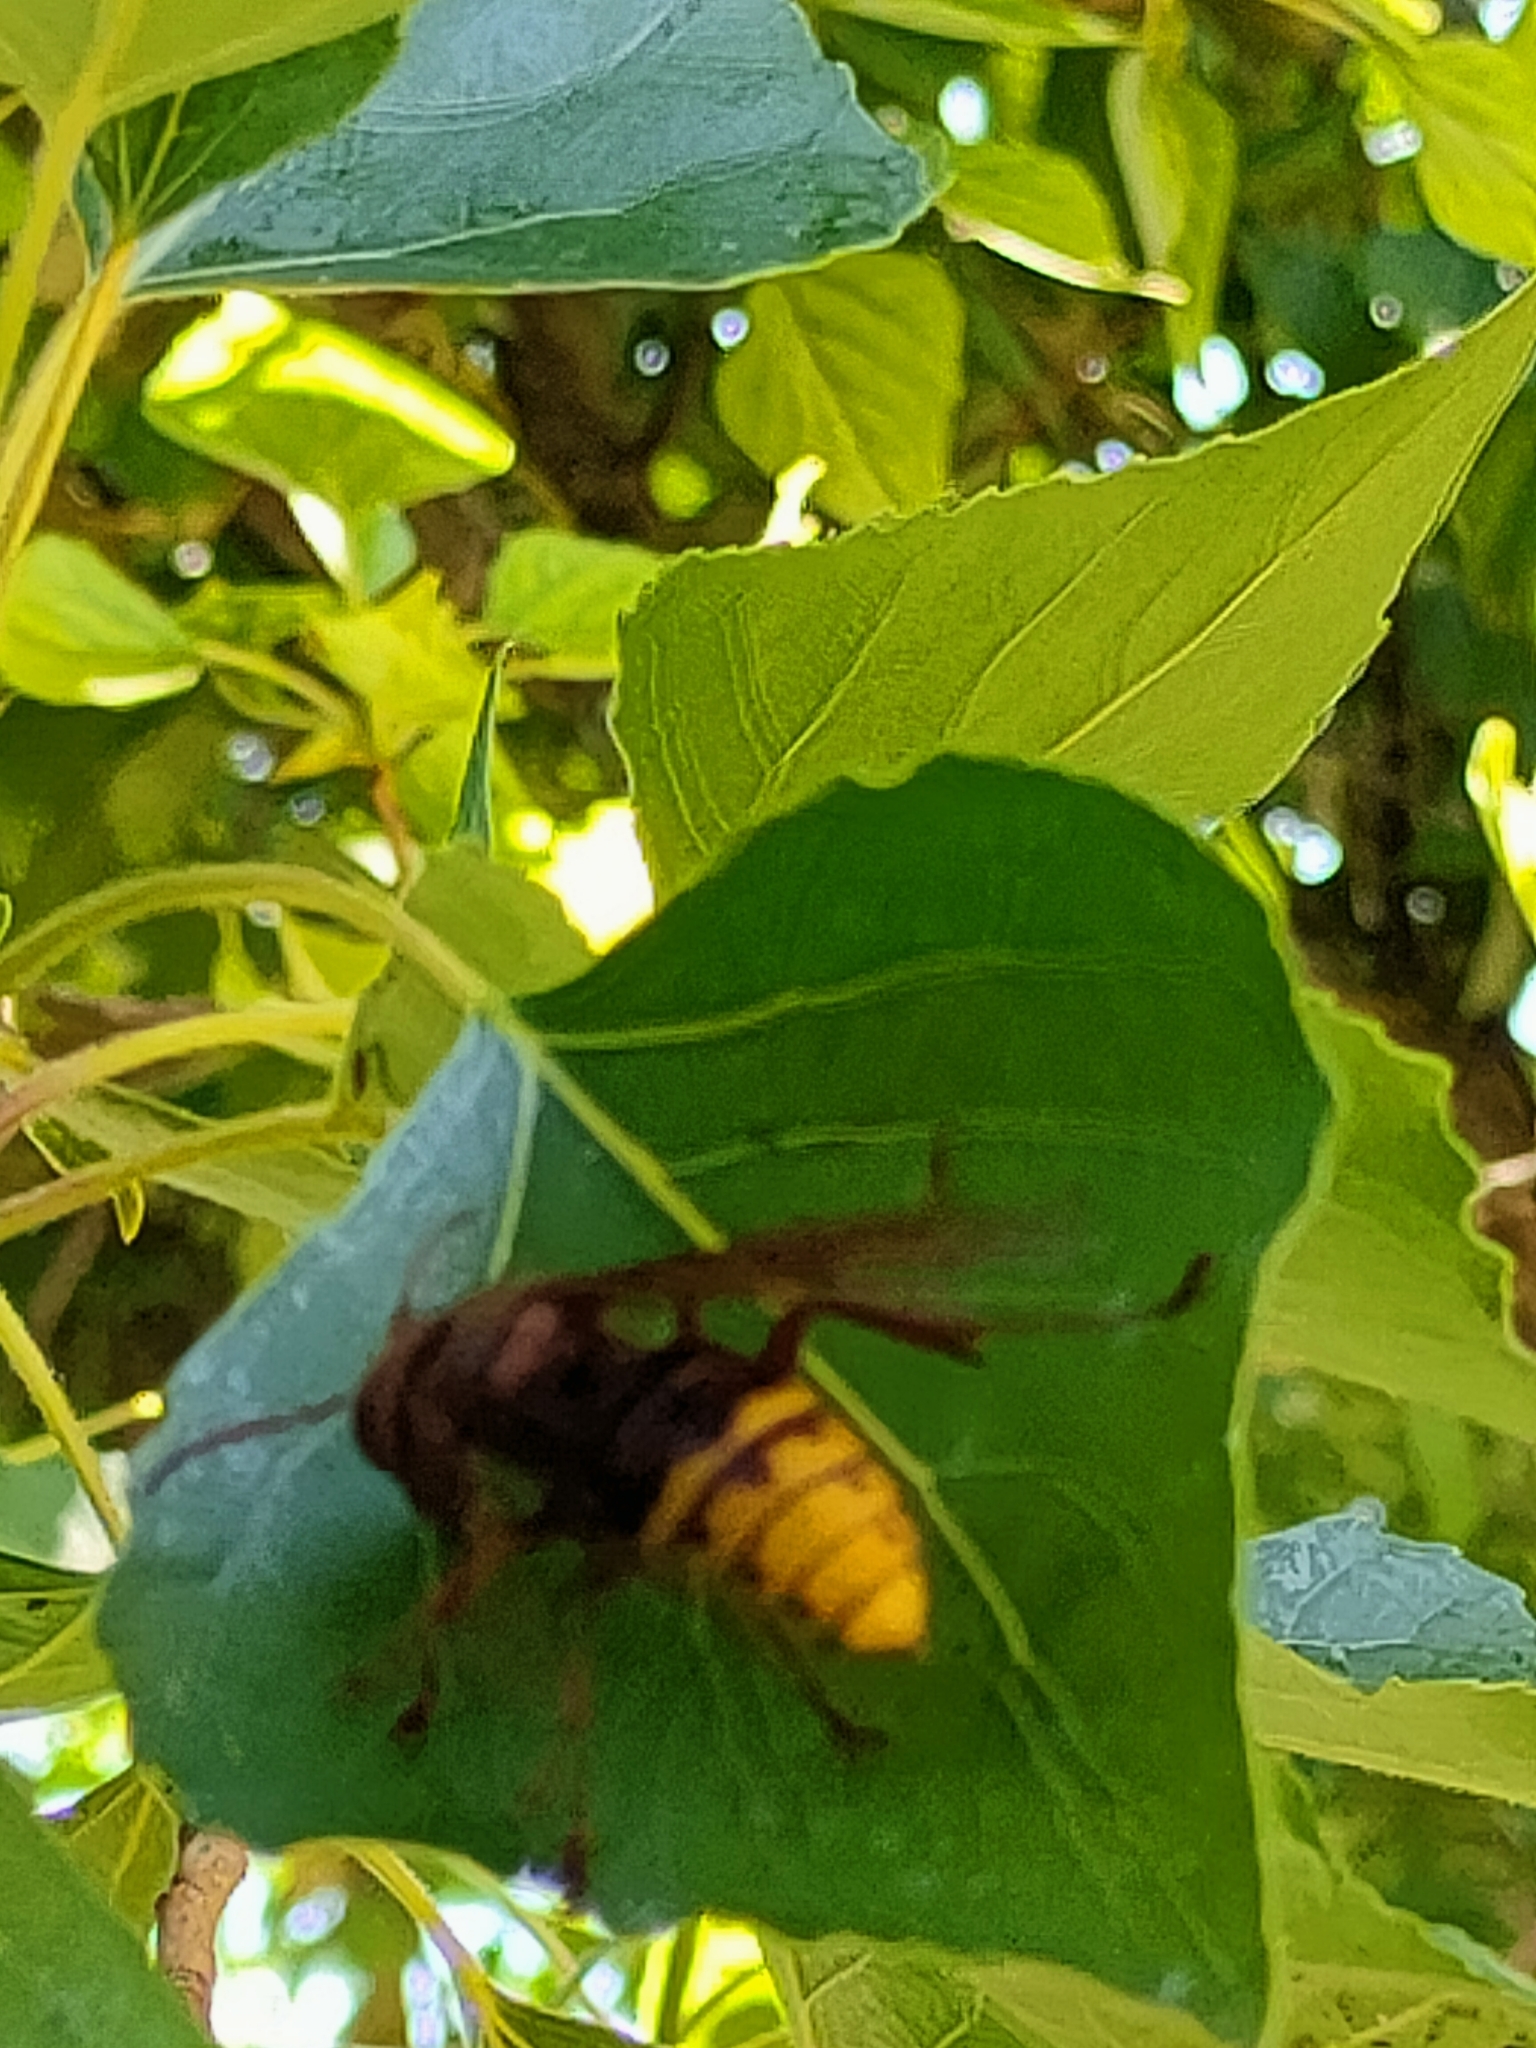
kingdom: Animalia
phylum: Arthropoda
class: Insecta
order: Hymenoptera
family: Vespidae
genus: Vespa
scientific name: Vespa crabro
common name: Hornet
